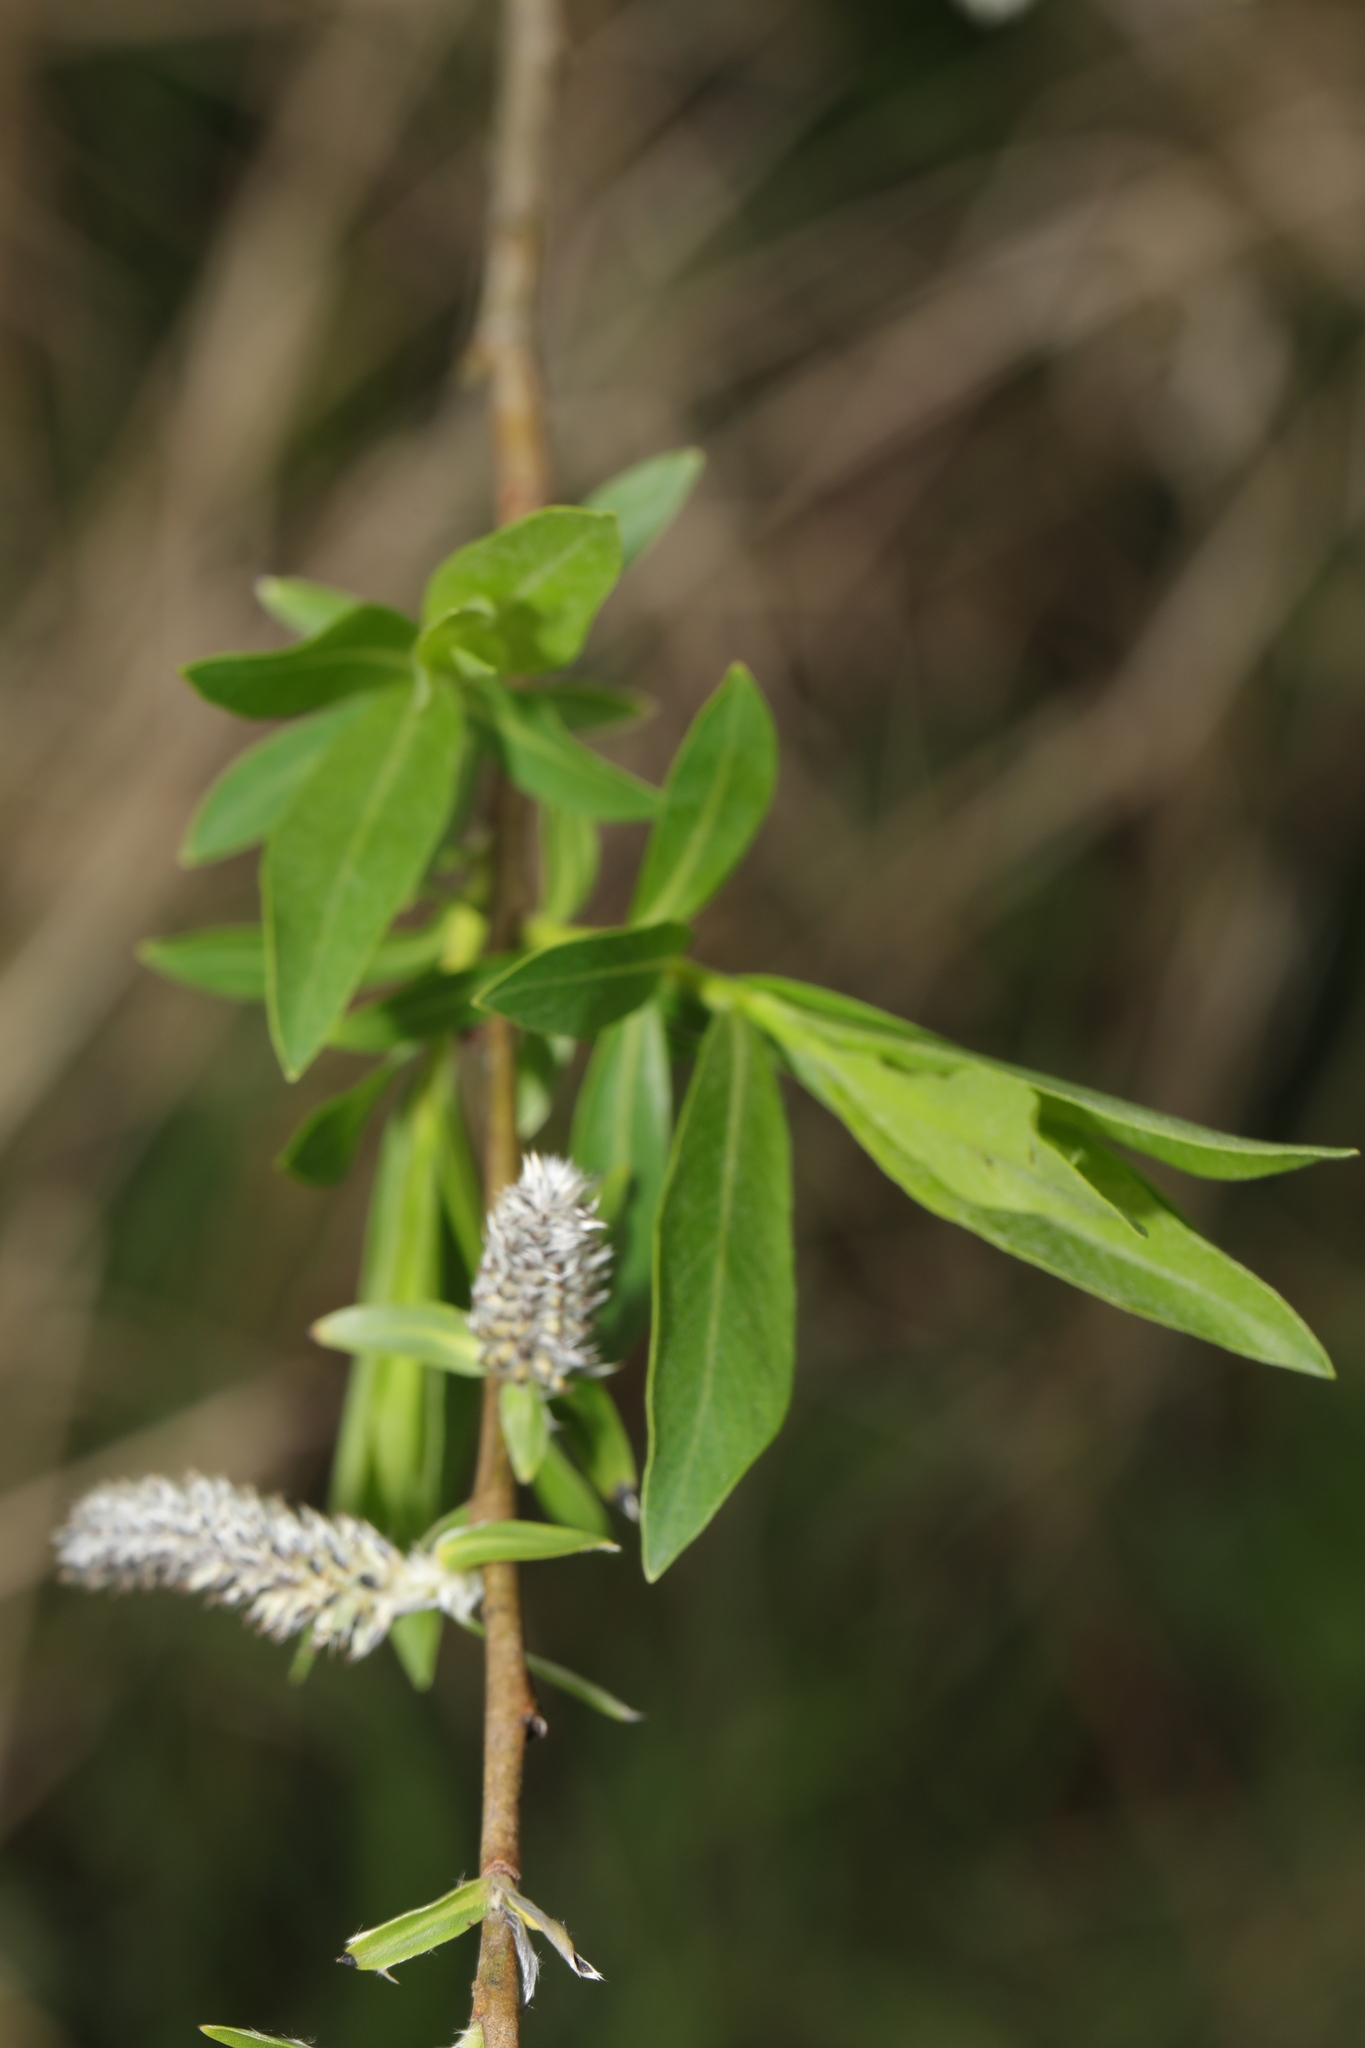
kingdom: Plantae
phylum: Tracheophyta
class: Magnoliopsida
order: Malpighiales
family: Salicaceae
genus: Salix
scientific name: Salix purpurea
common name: Purple willow
